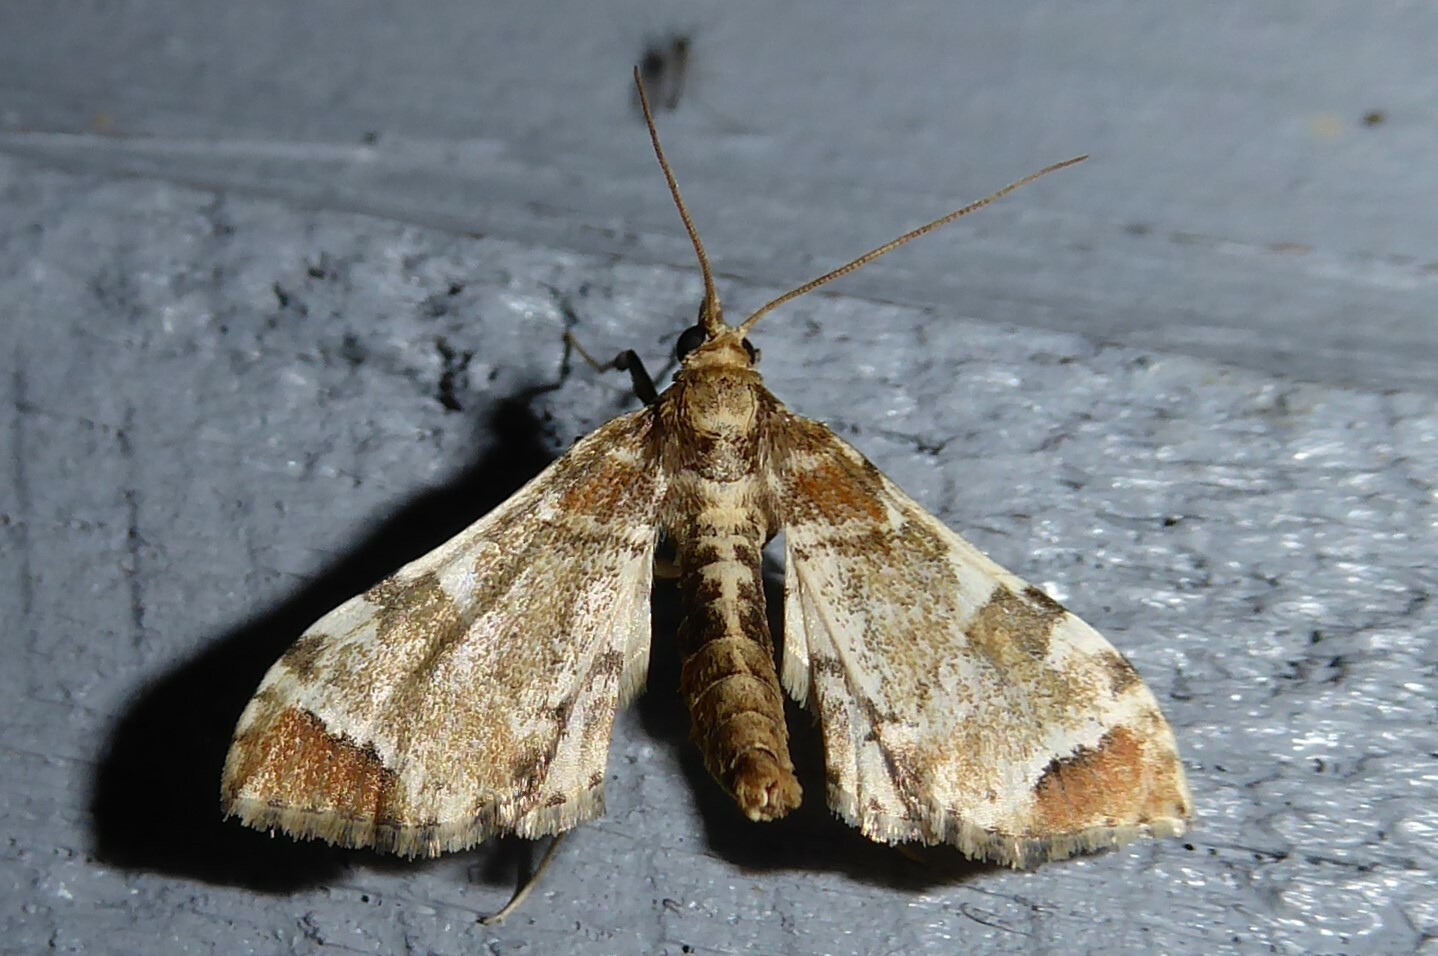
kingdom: Animalia
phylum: Arthropoda
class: Insecta
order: Lepidoptera
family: Crambidae
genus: Sceliodes
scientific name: Sceliodes cordalis
